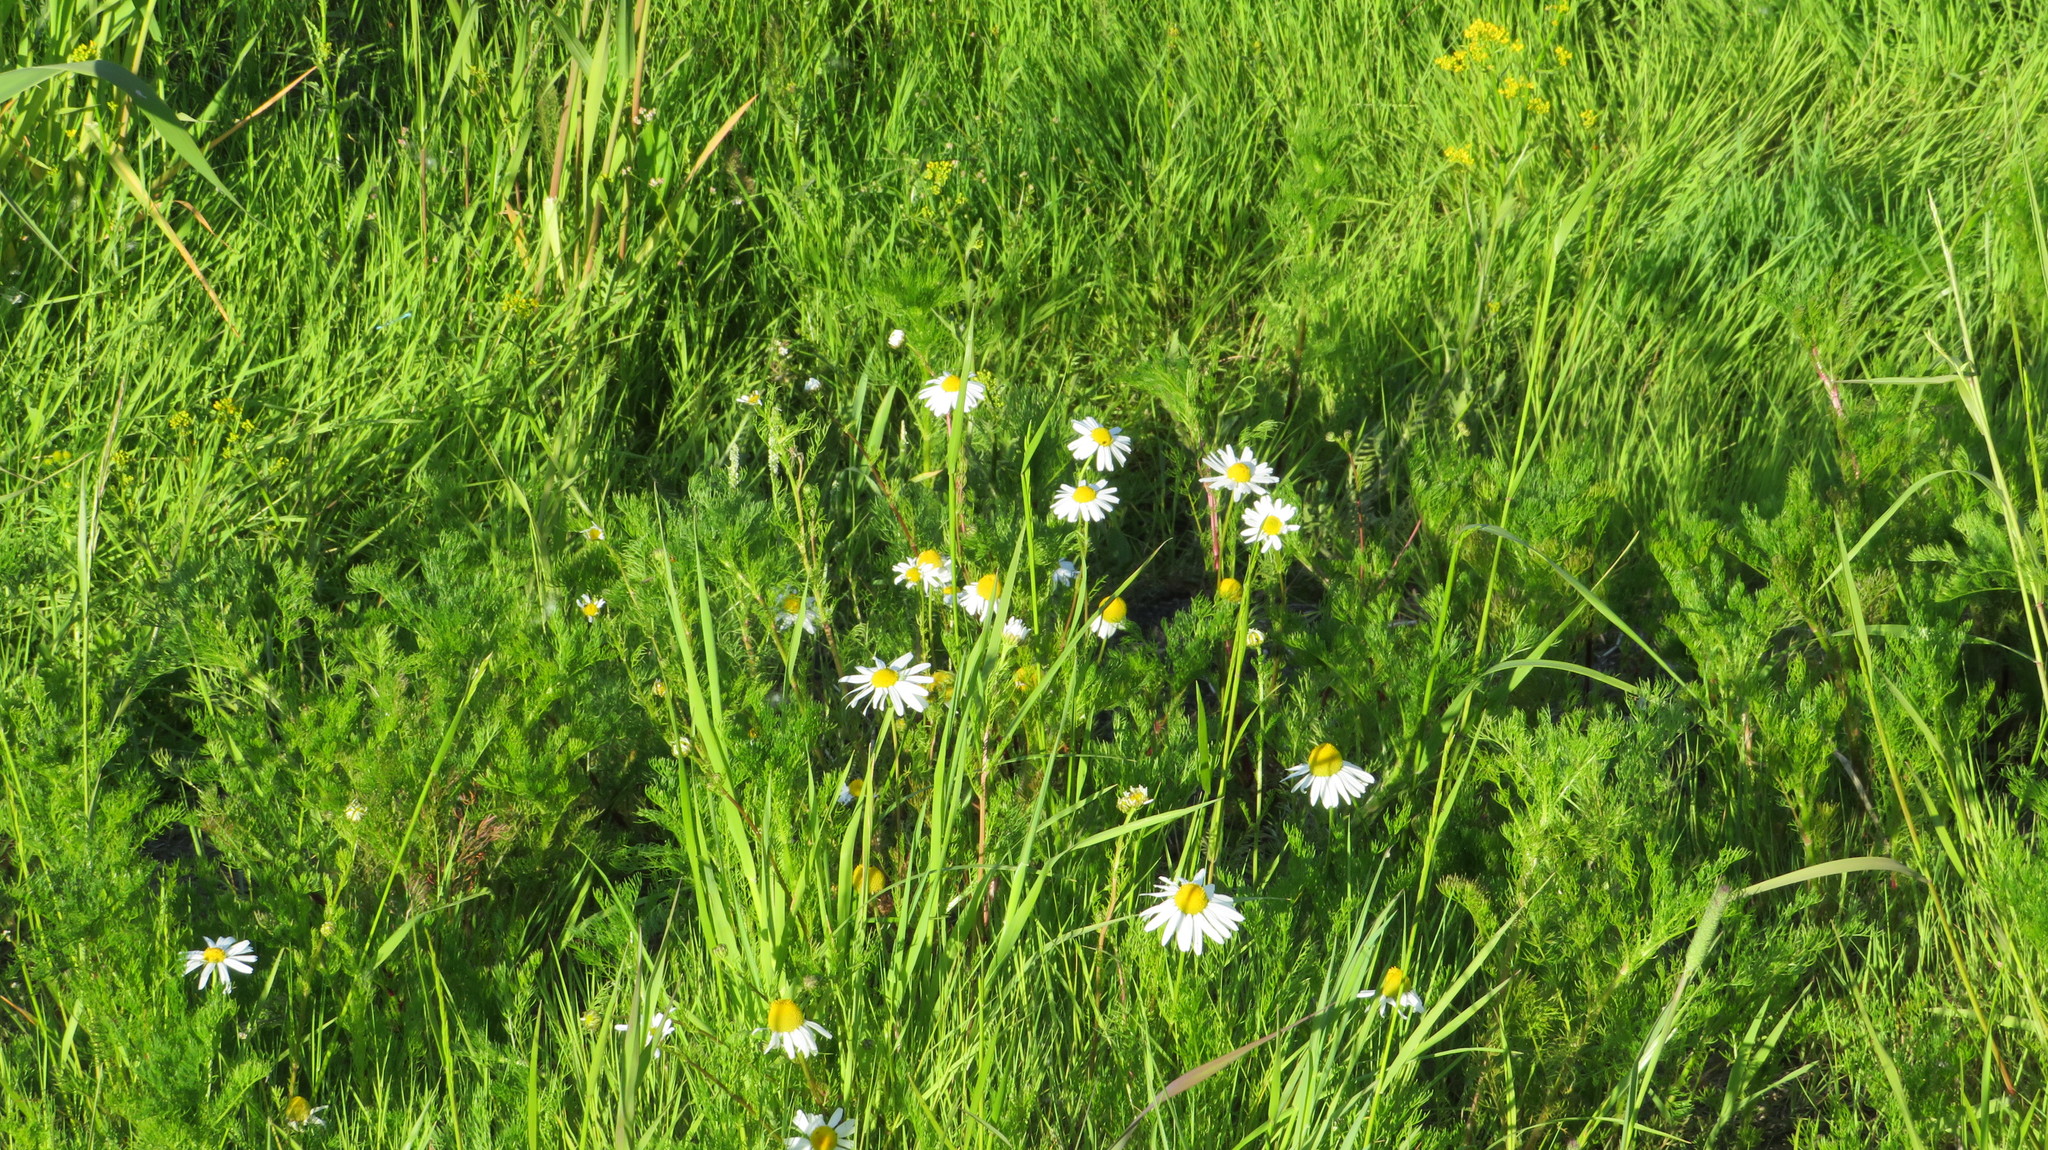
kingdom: Plantae
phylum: Tracheophyta
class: Magnoliopsida
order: Asterales
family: Asteraceae
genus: Tripleurospermum
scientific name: Tripleurospermum inodorum
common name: Scentless mayweed
